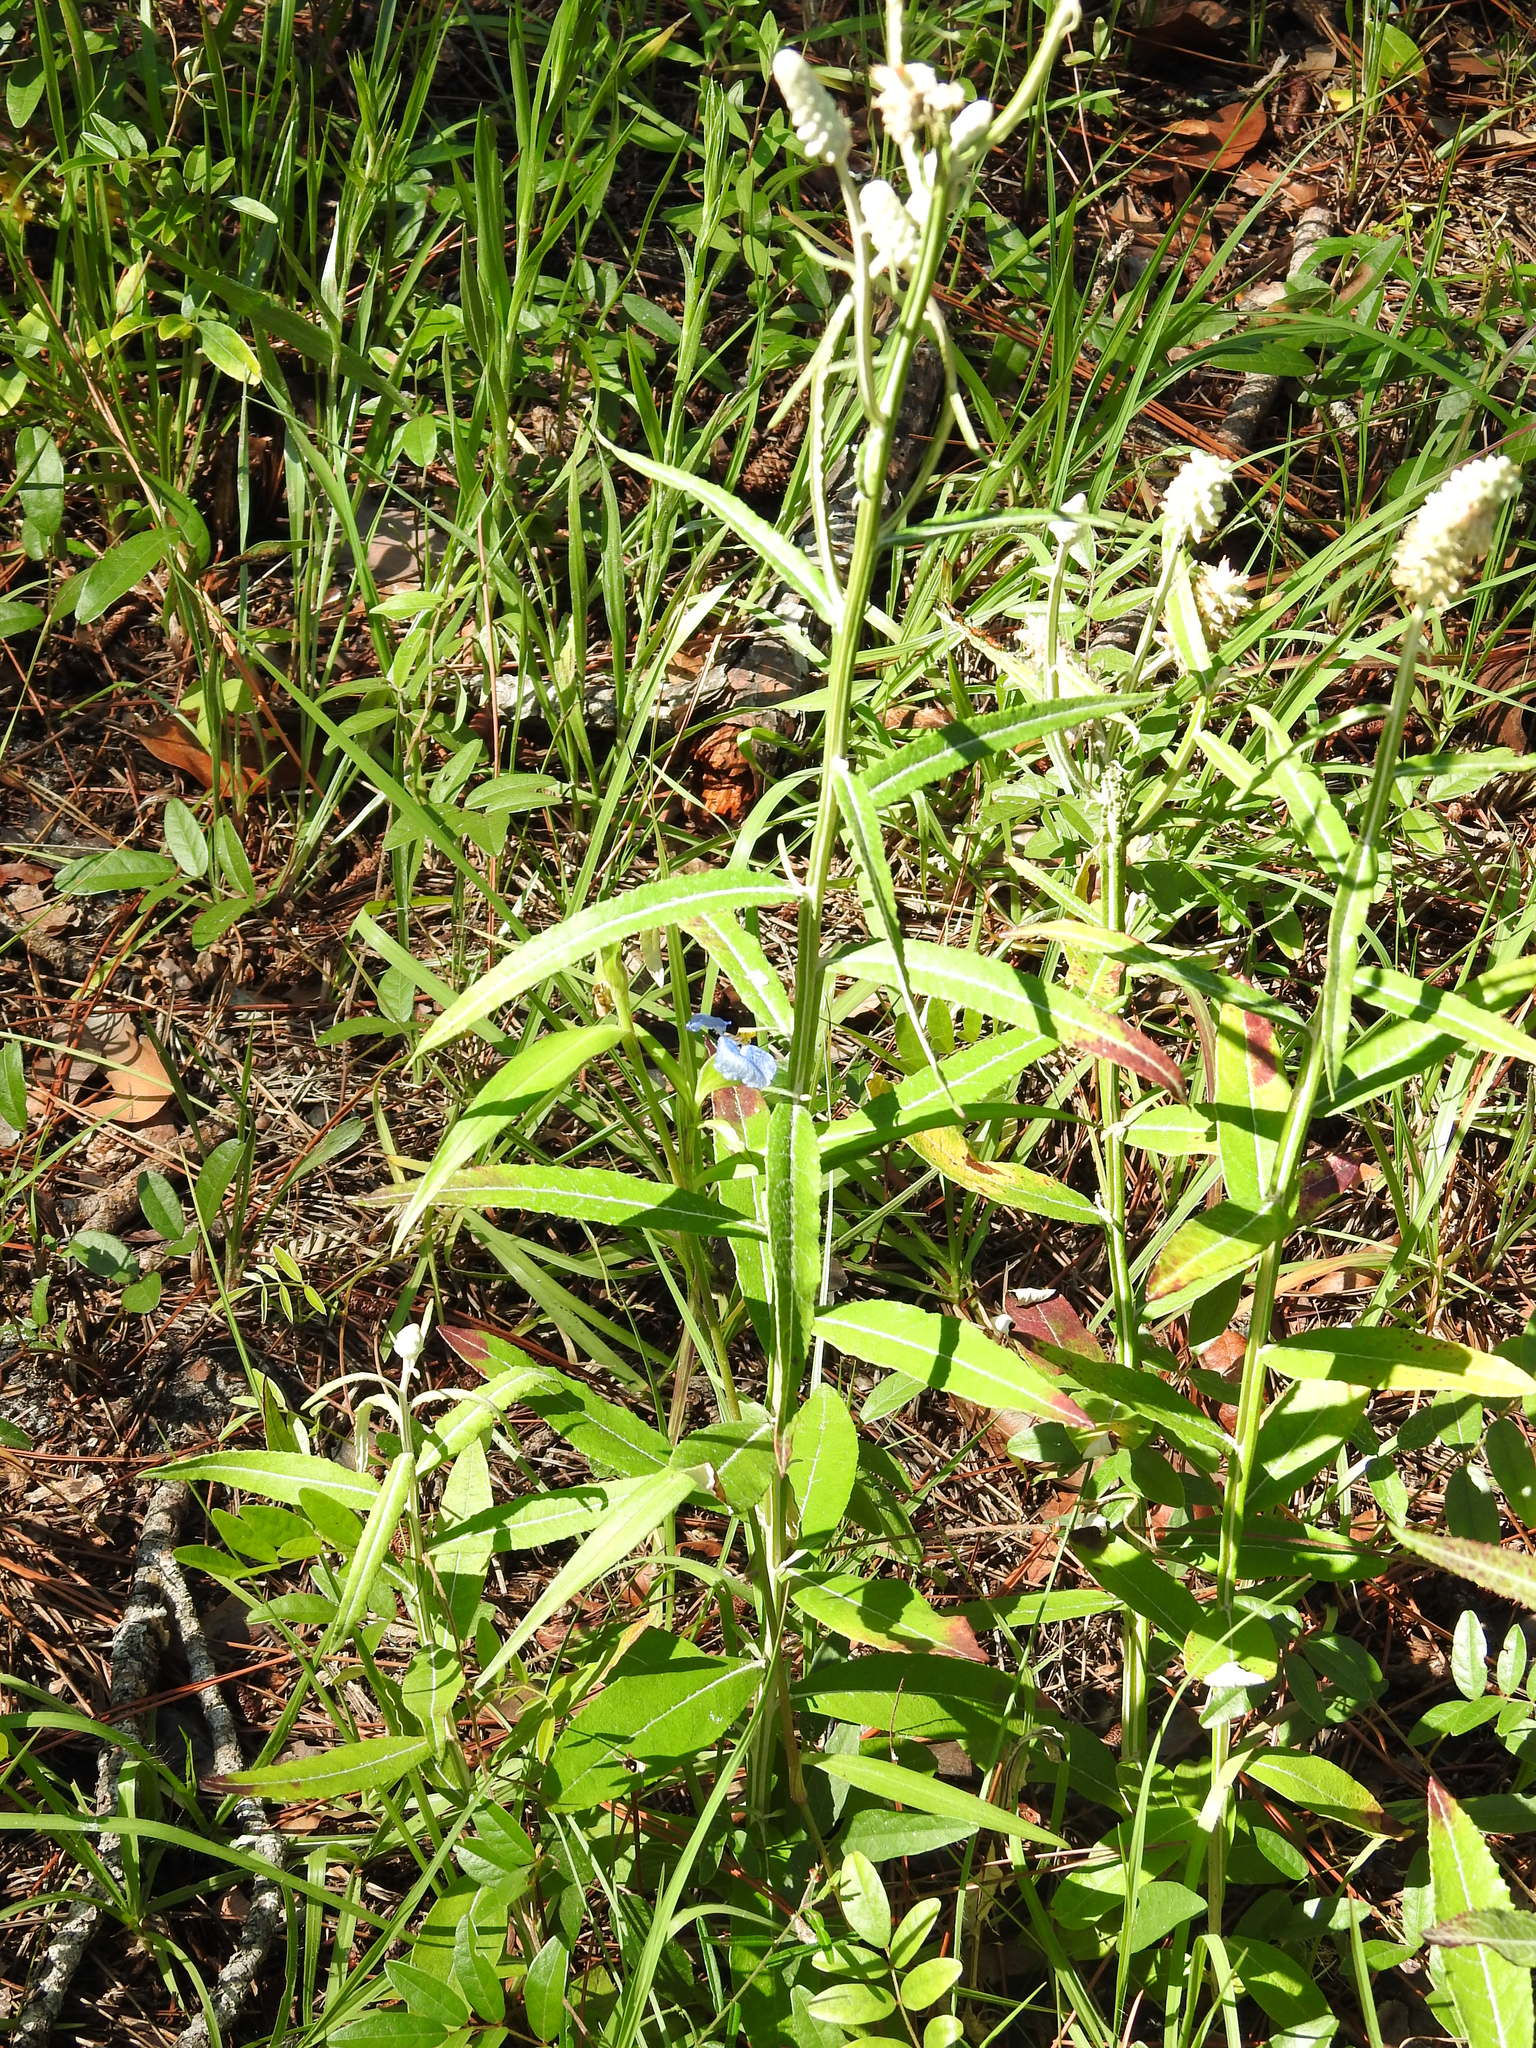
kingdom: Plantae
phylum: Tracheophyta
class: Magnoliopsida
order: Asterales
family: Asteraceae
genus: Pterocaulon
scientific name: Pterocaulon pycnostachyum
